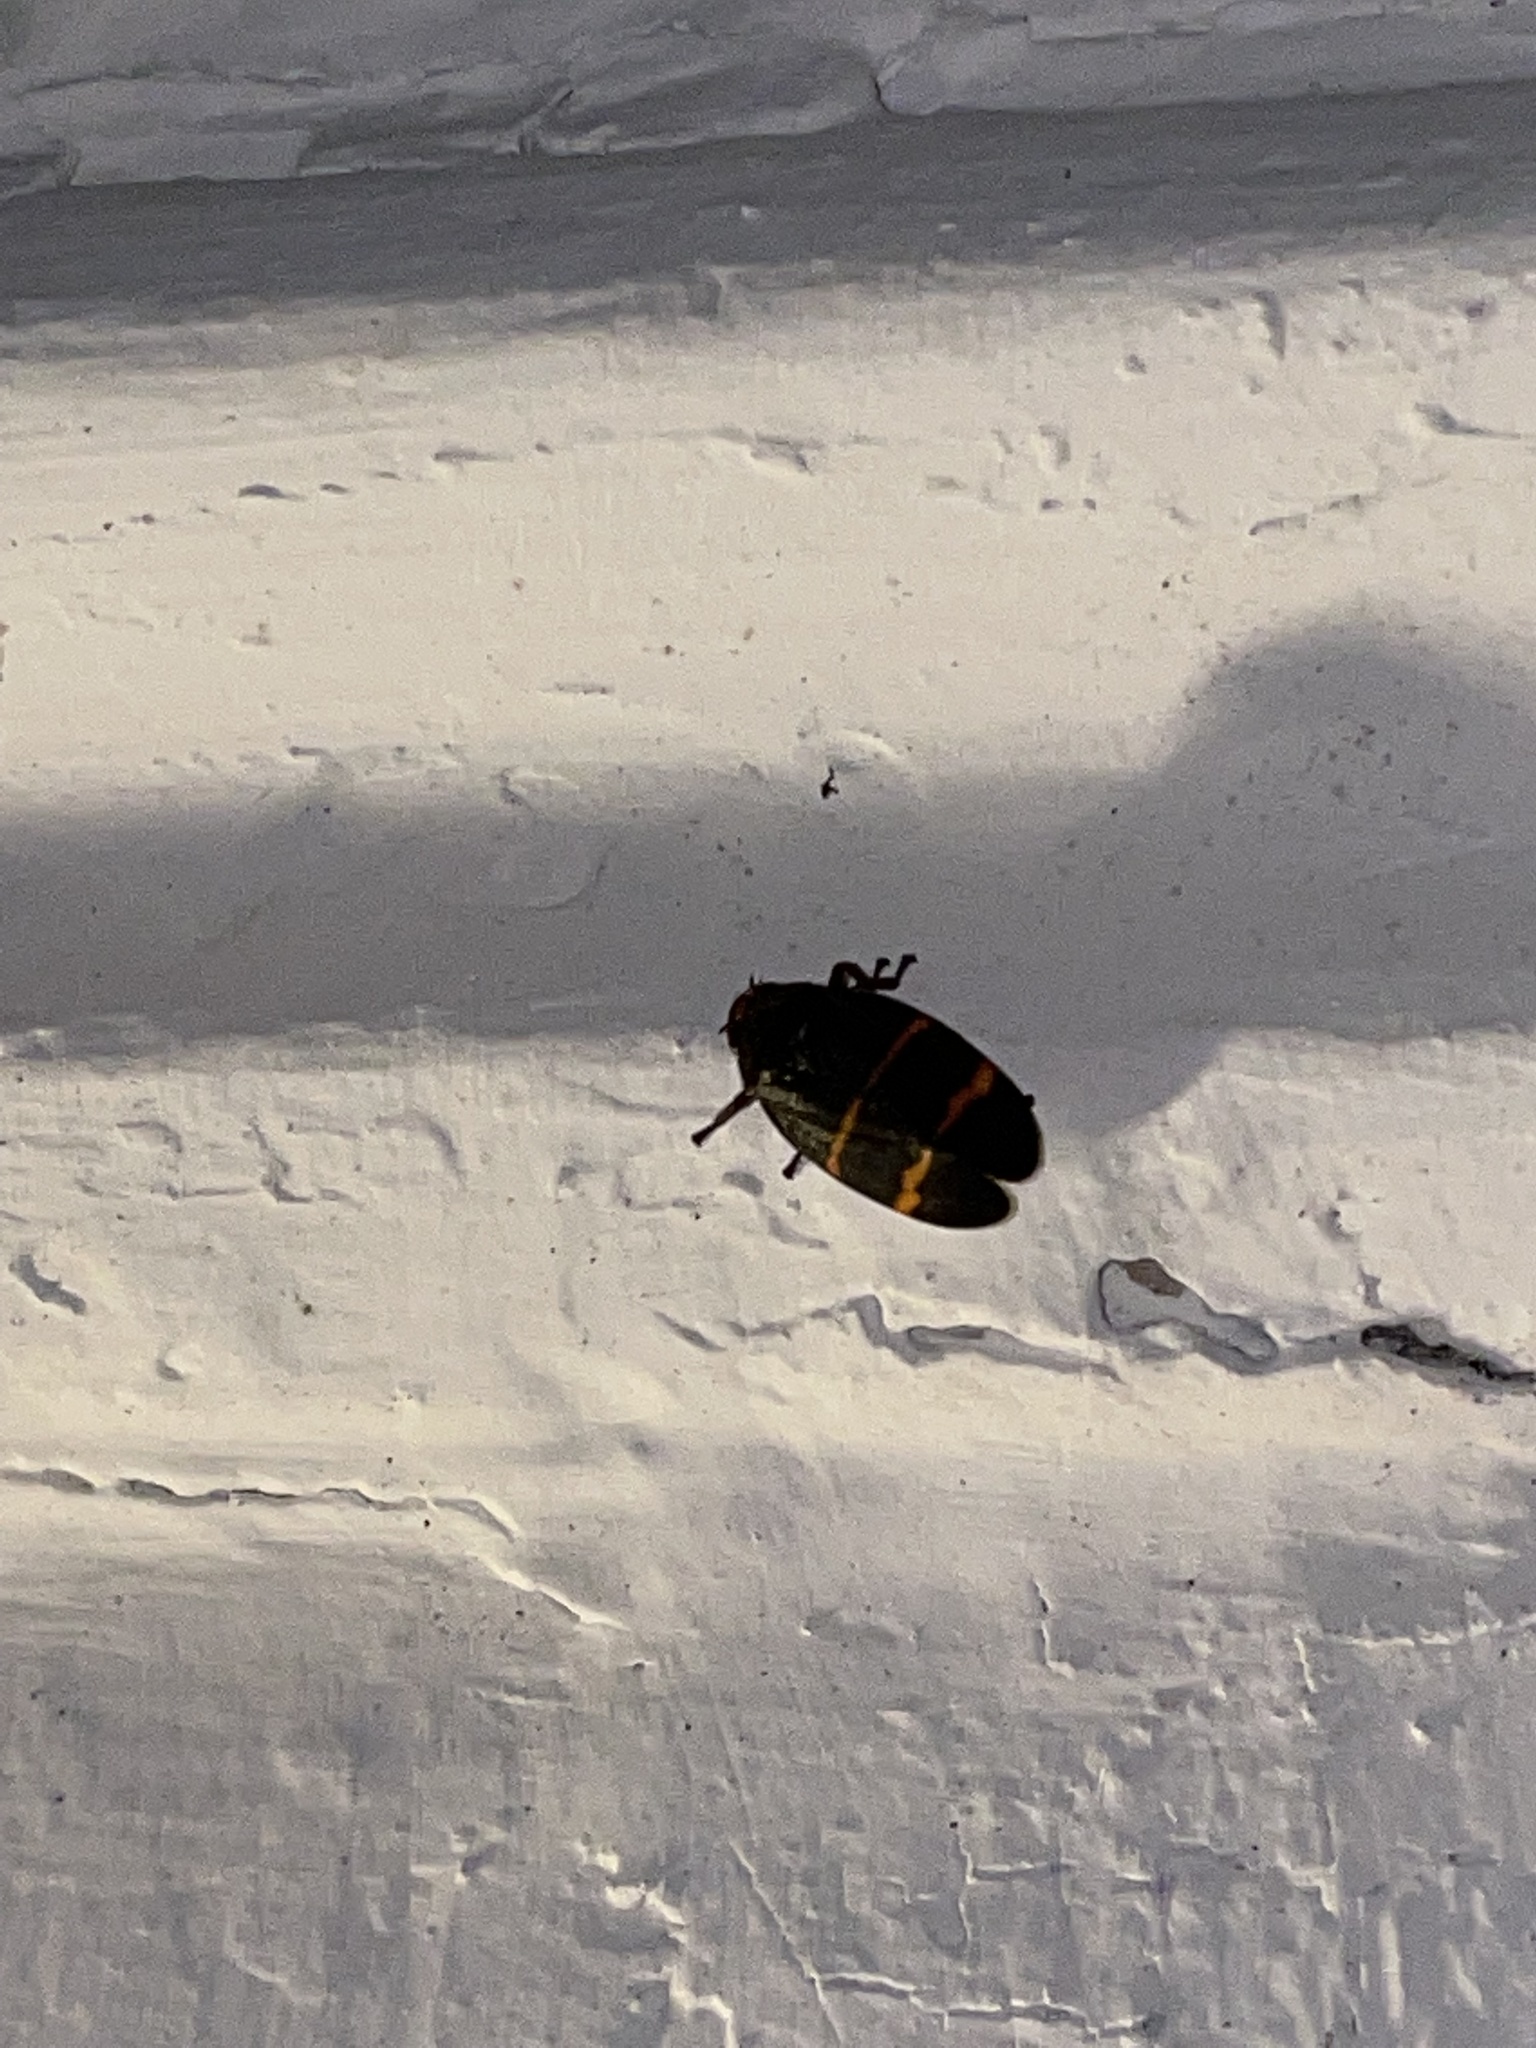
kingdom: Animalia
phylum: Arthropoda
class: Insecta
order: Hemiptera
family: Cercopidae
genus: Prosapia
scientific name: Prosapia bicincta
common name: Twolined spittlebug
